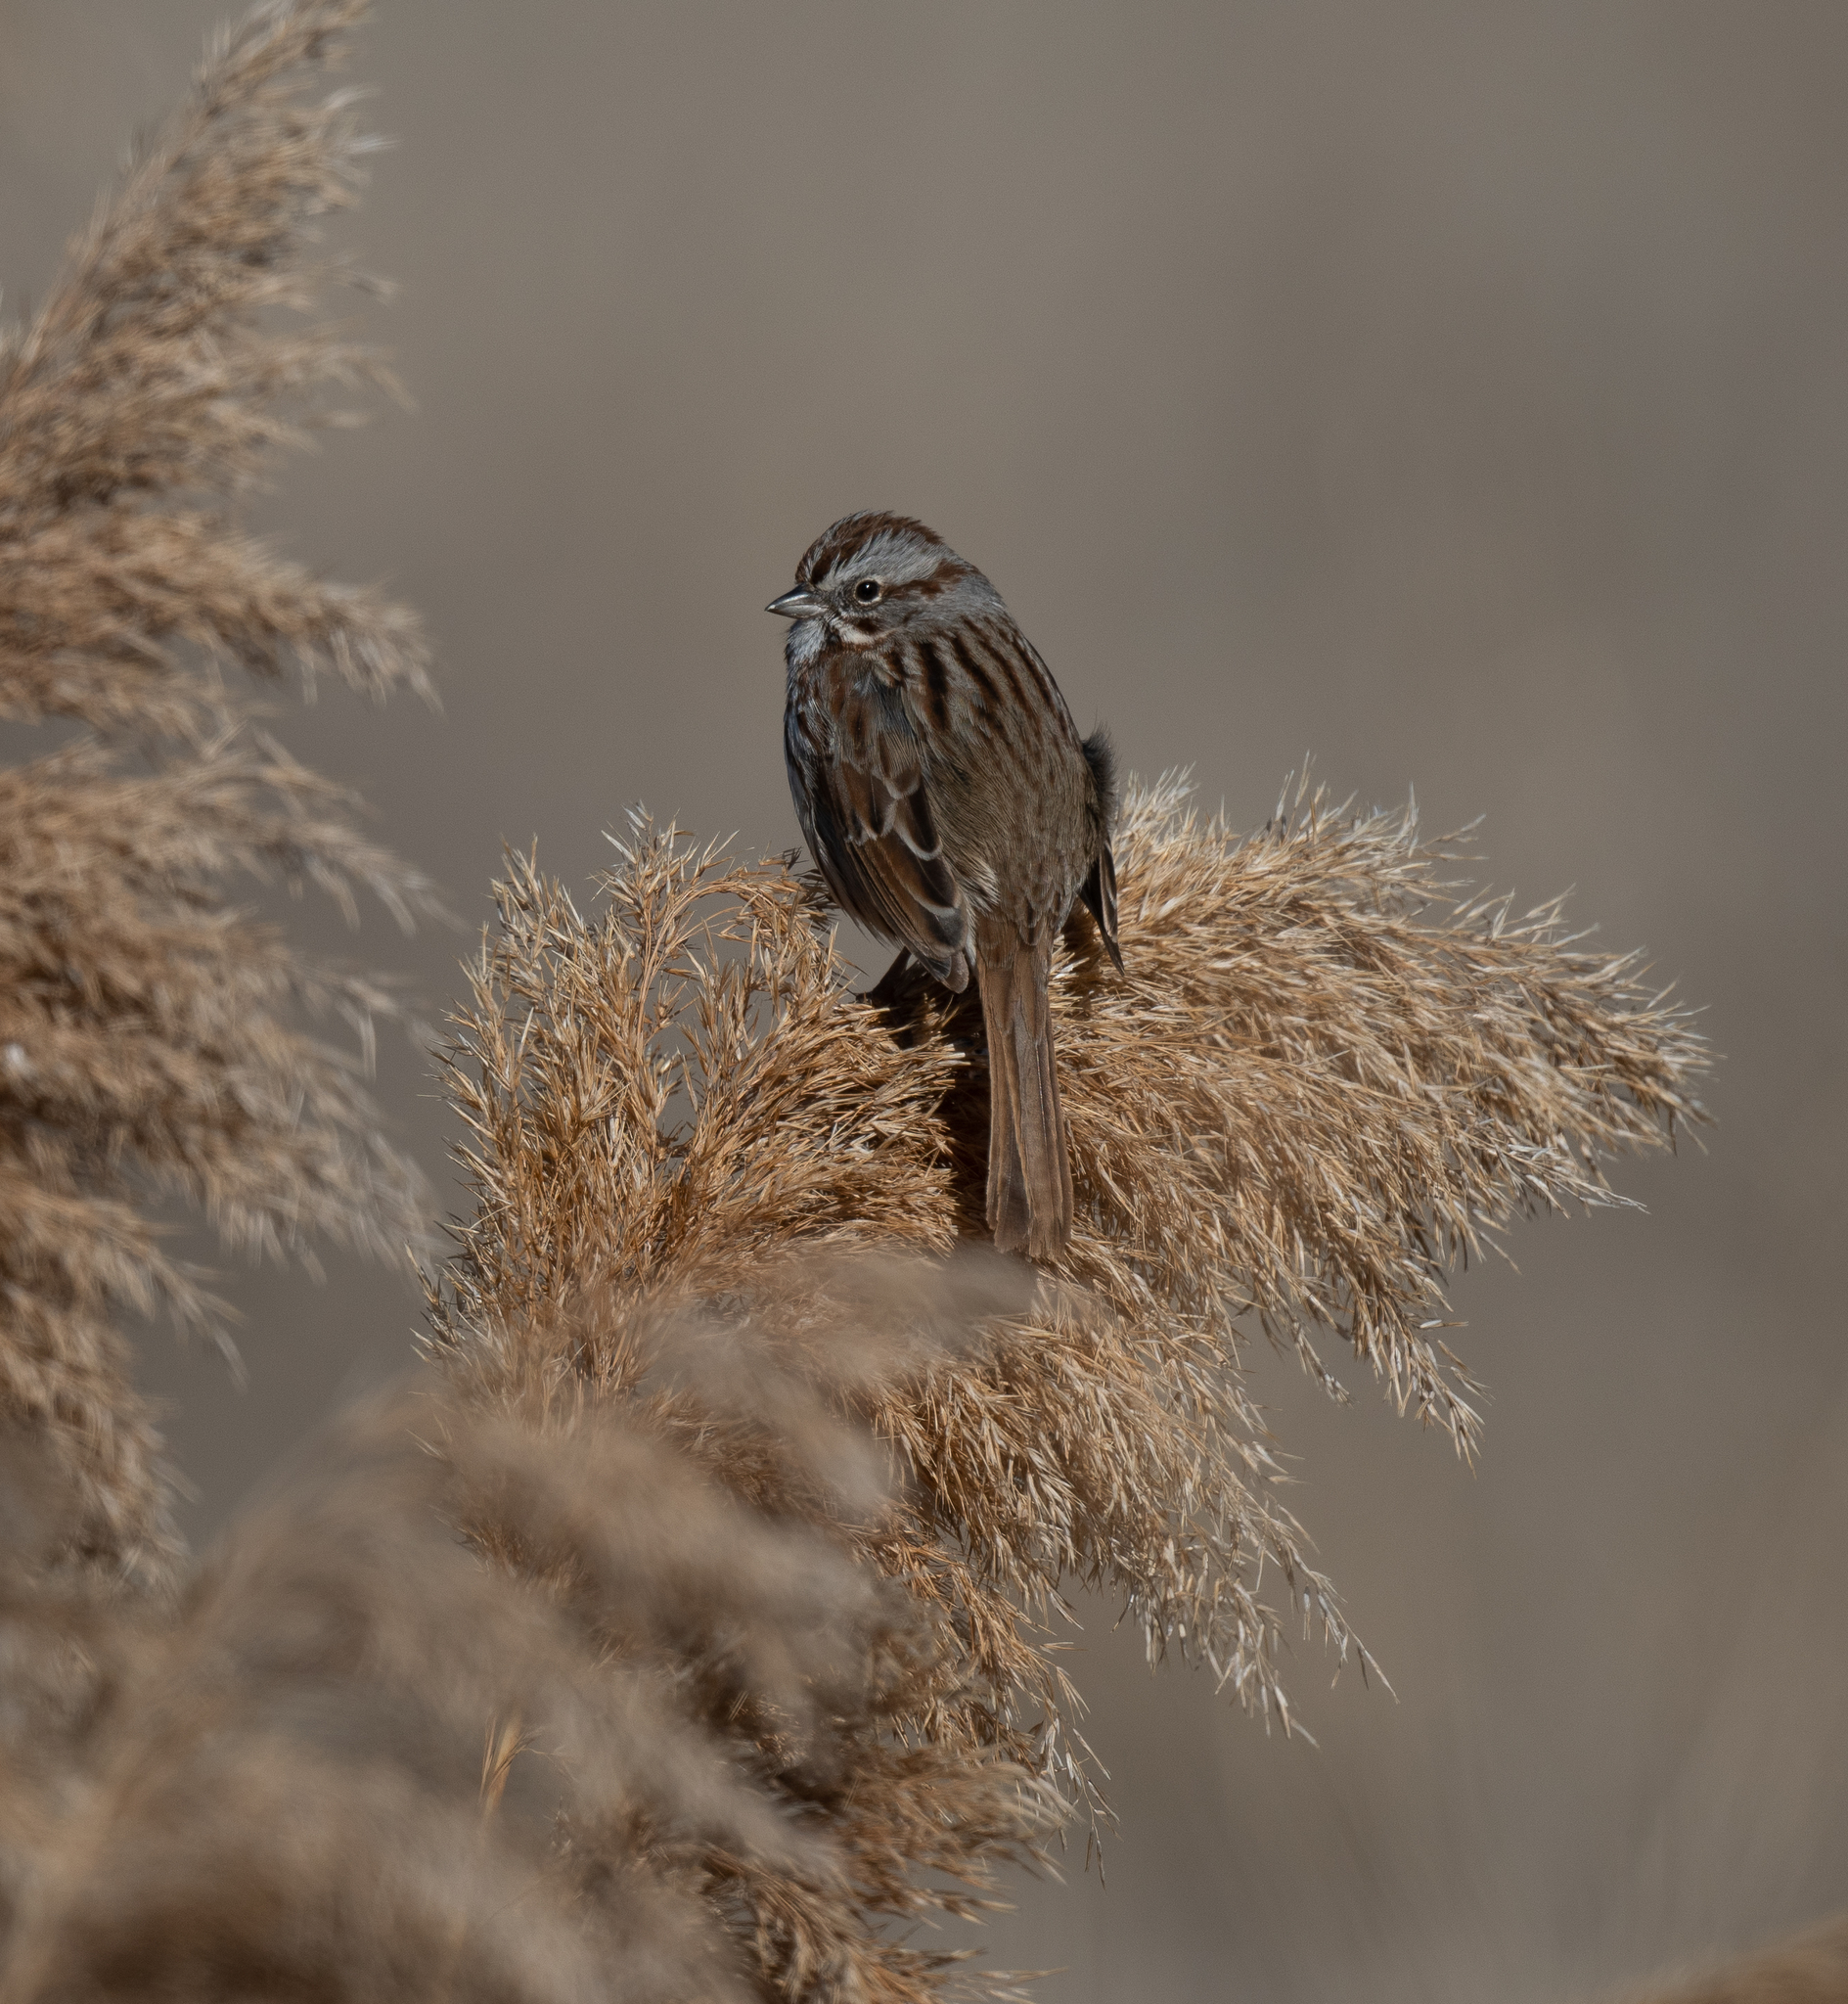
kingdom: Animalia
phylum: Chordata
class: Aves
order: Passeriformes
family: Passerellidae
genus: Melospiza
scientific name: Melospiza melodia
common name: Song sparrow
